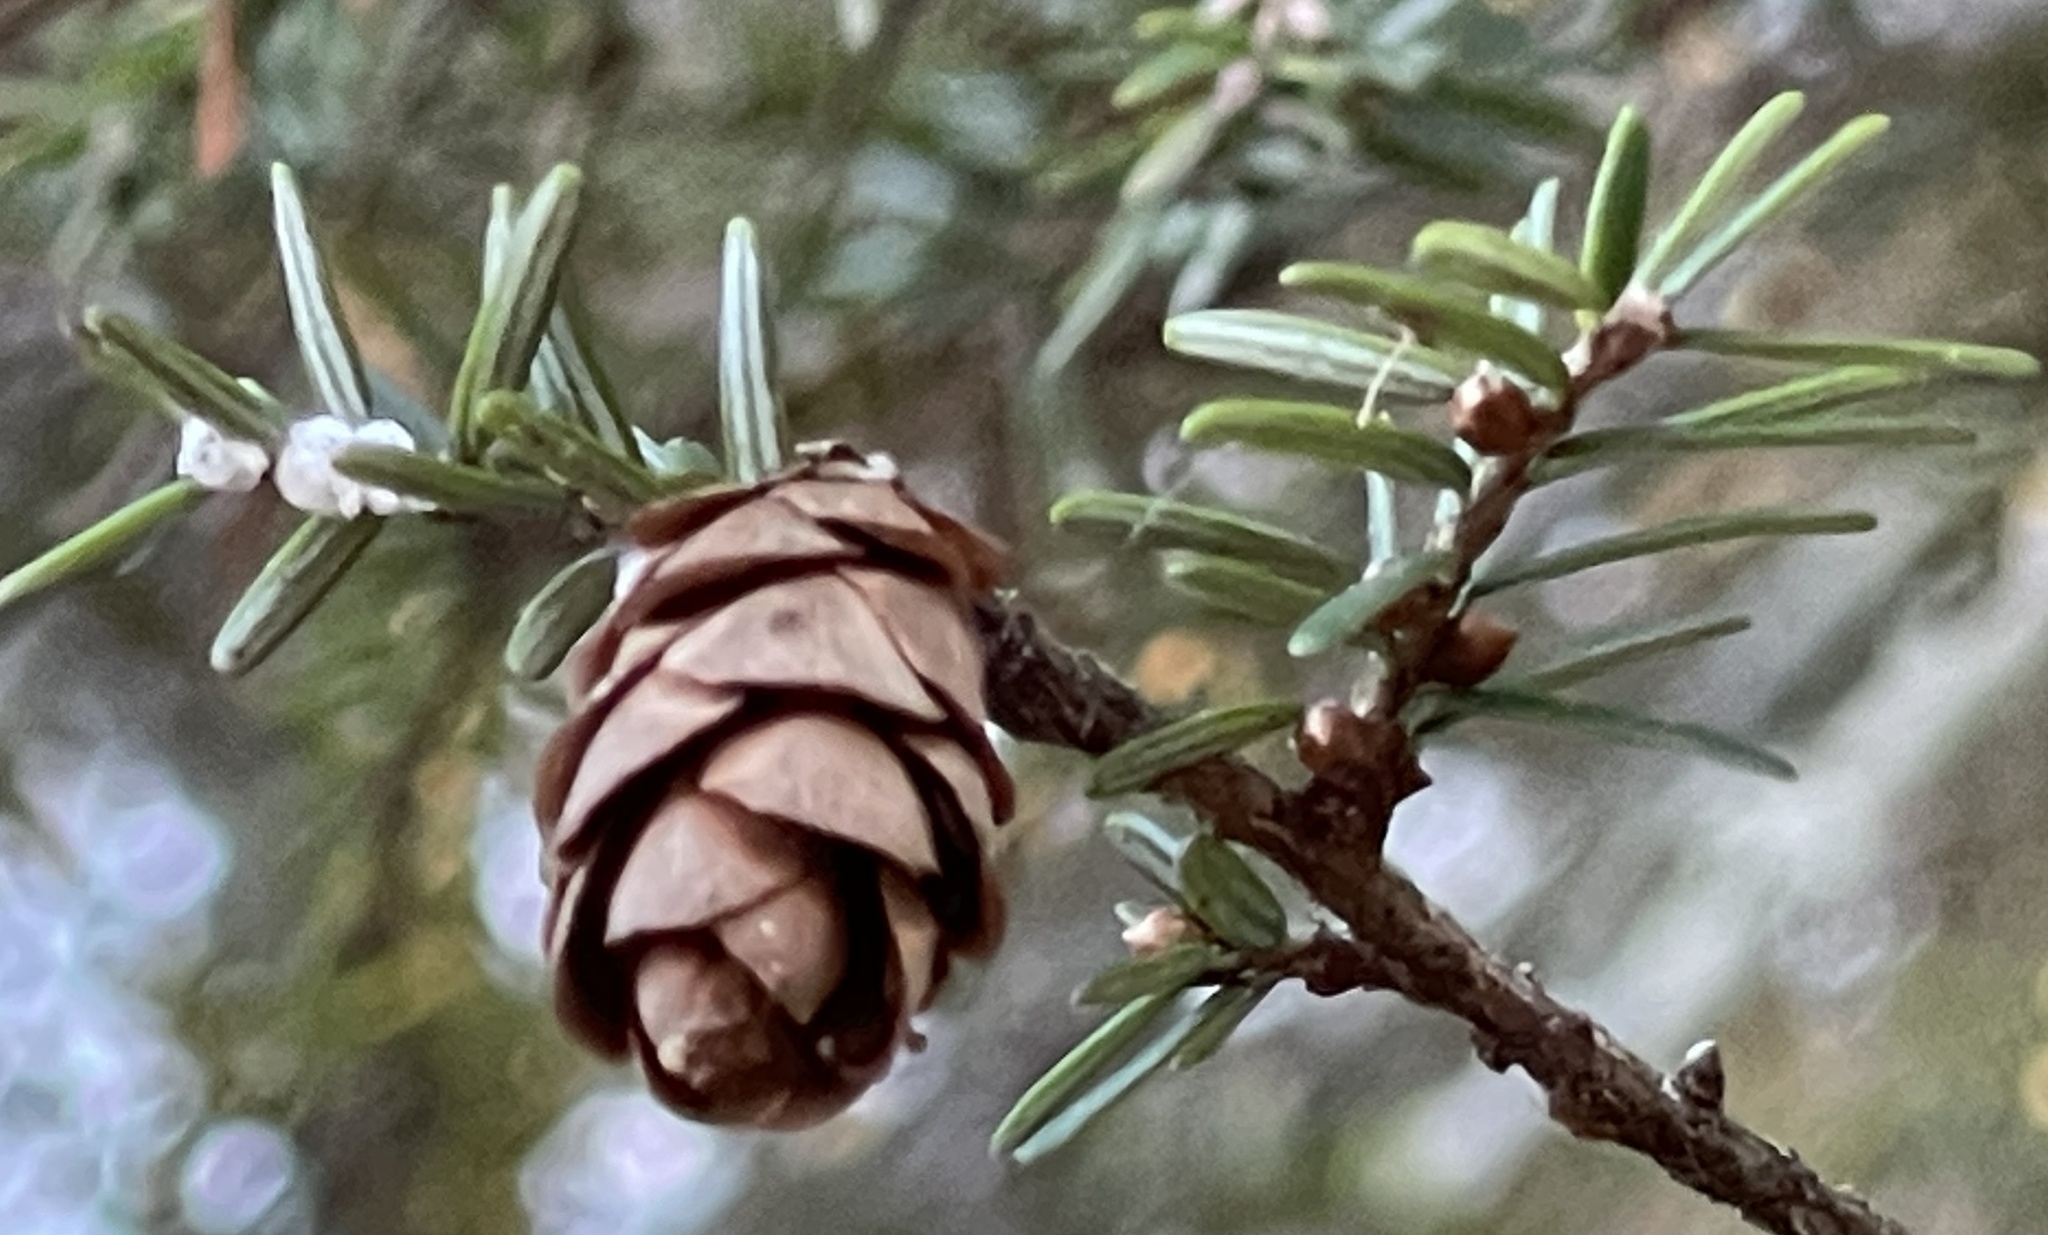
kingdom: Plantae
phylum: Tracheophyta
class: Pinopsida
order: Pinales
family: Pinaceae
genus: Tsuga
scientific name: Tsuga canadensis
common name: Eastern hemlock
